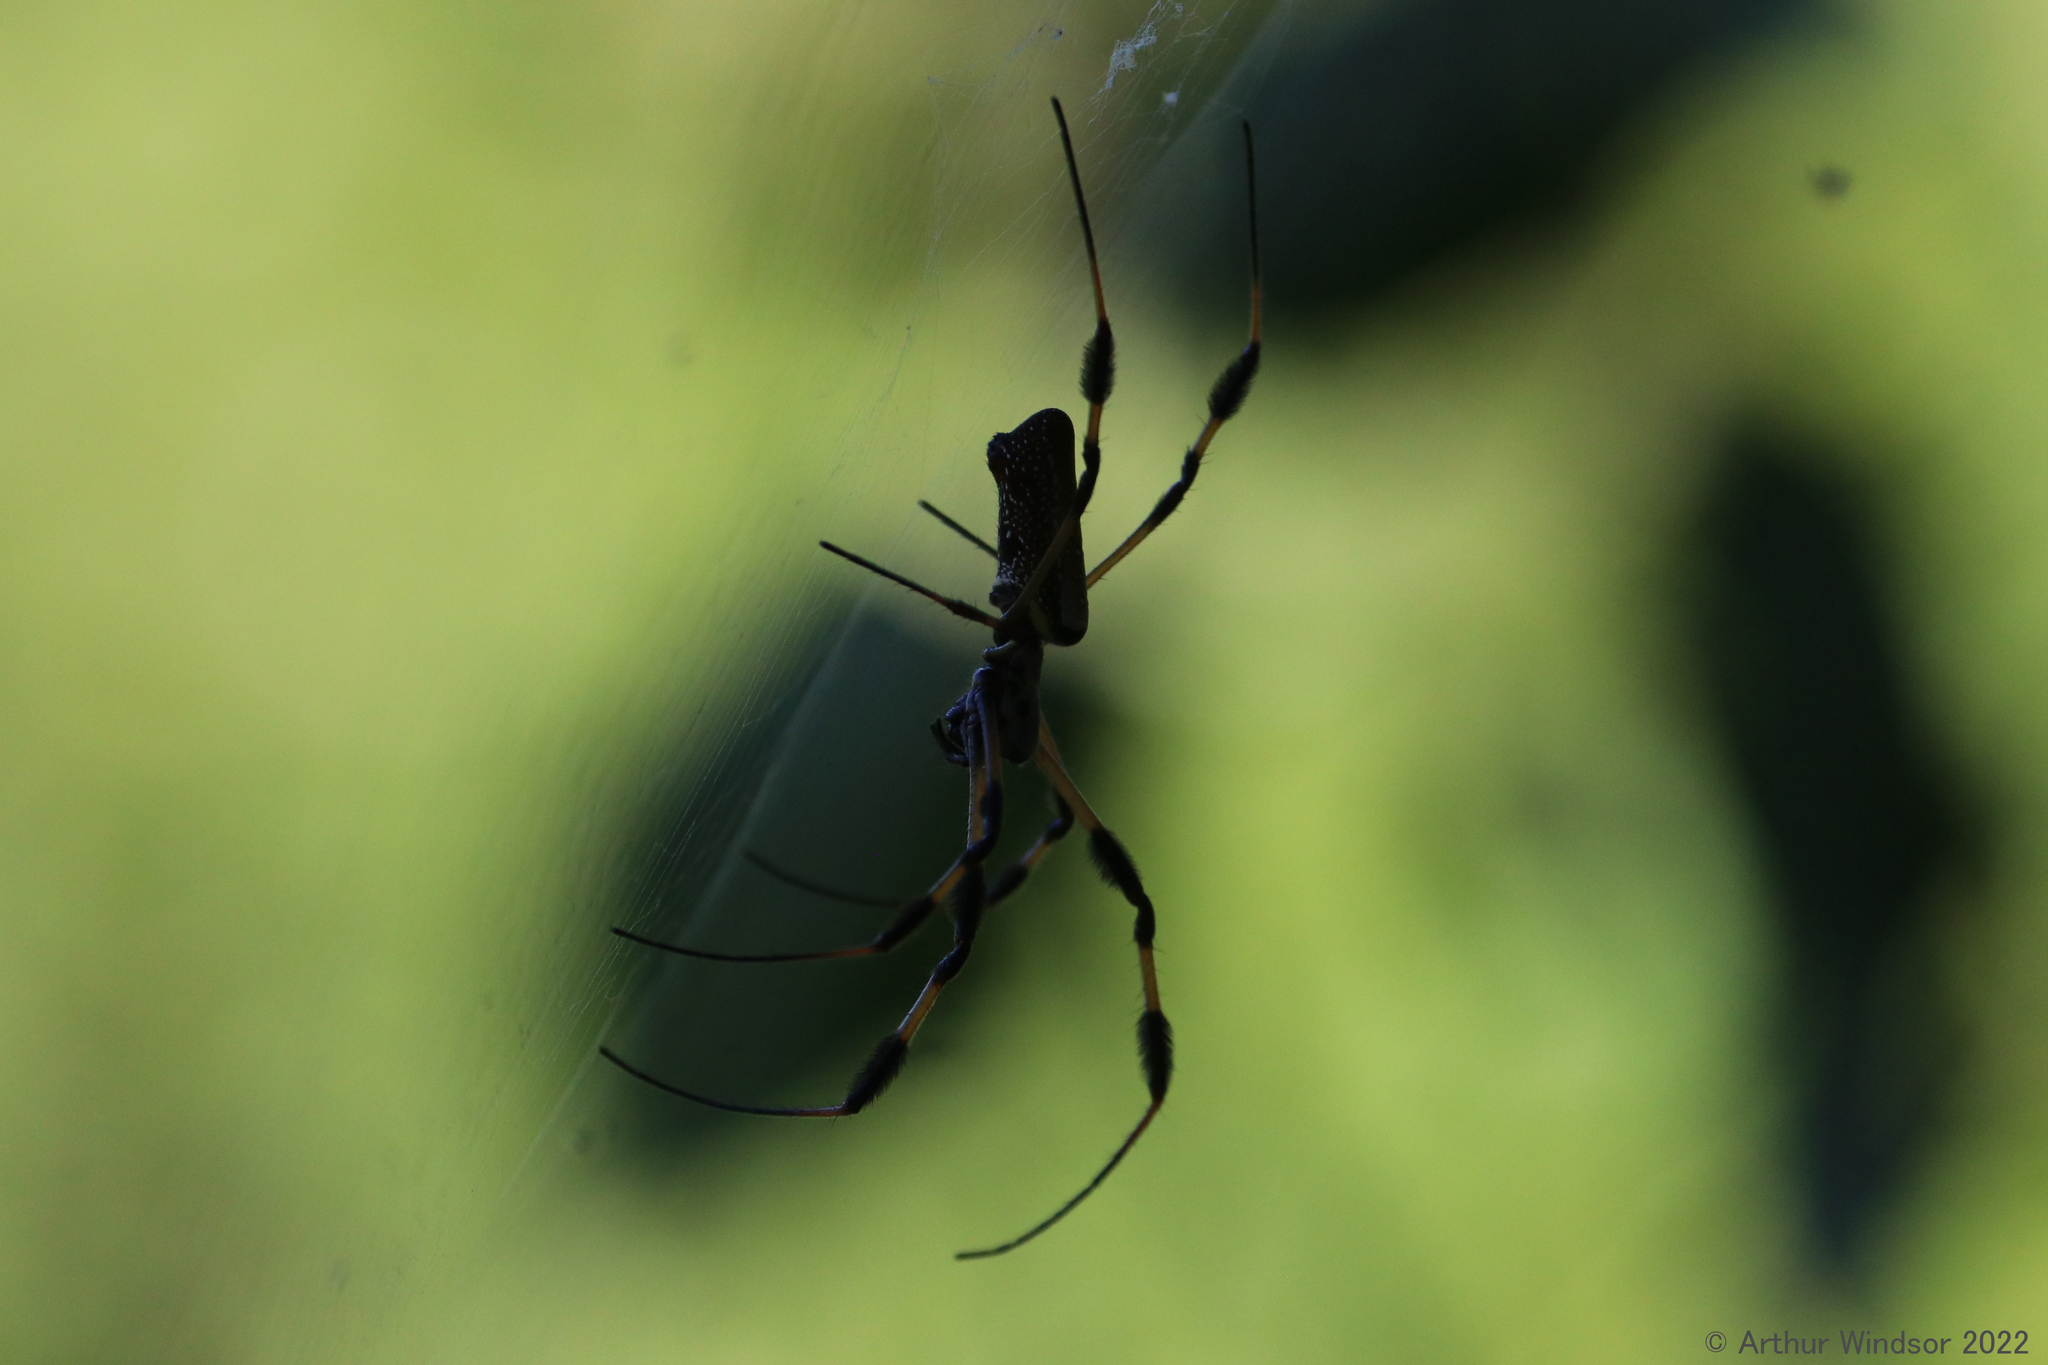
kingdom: Animalia
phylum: Arthropoda
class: Arachnida
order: Araneae
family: Araneidae
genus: Trichonephila
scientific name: Trichonephila clavipes
